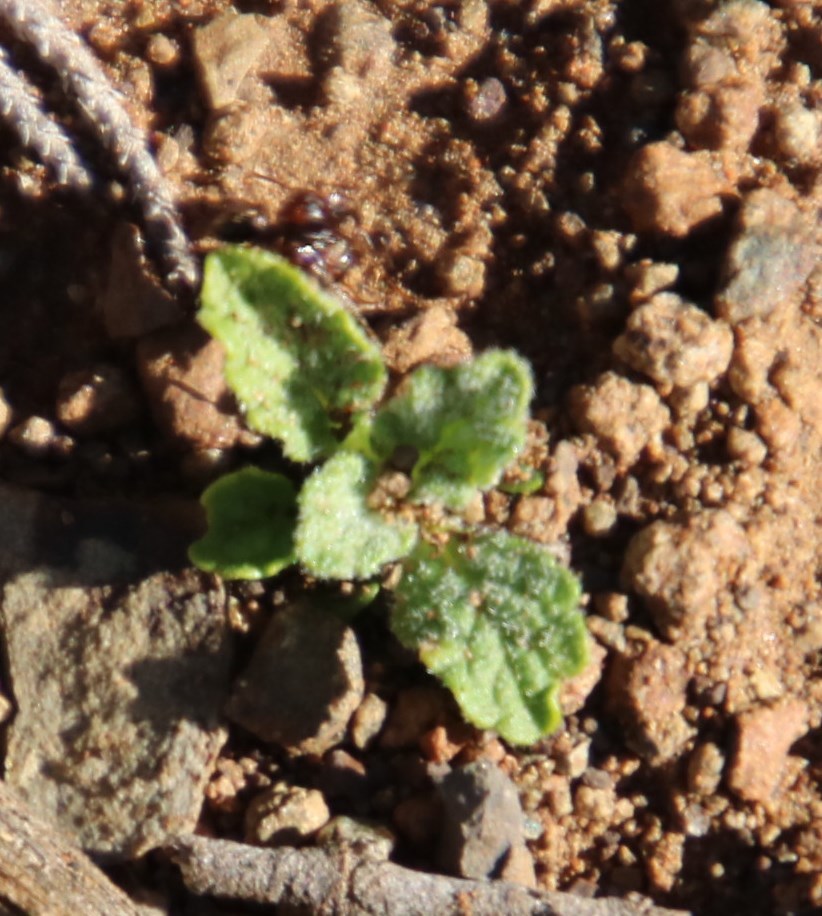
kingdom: Animalia
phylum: Arthropoda
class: Insecta
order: Hymenoptera
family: Formicidae
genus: Anoplolepis
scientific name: Anoplolepis custodiens
